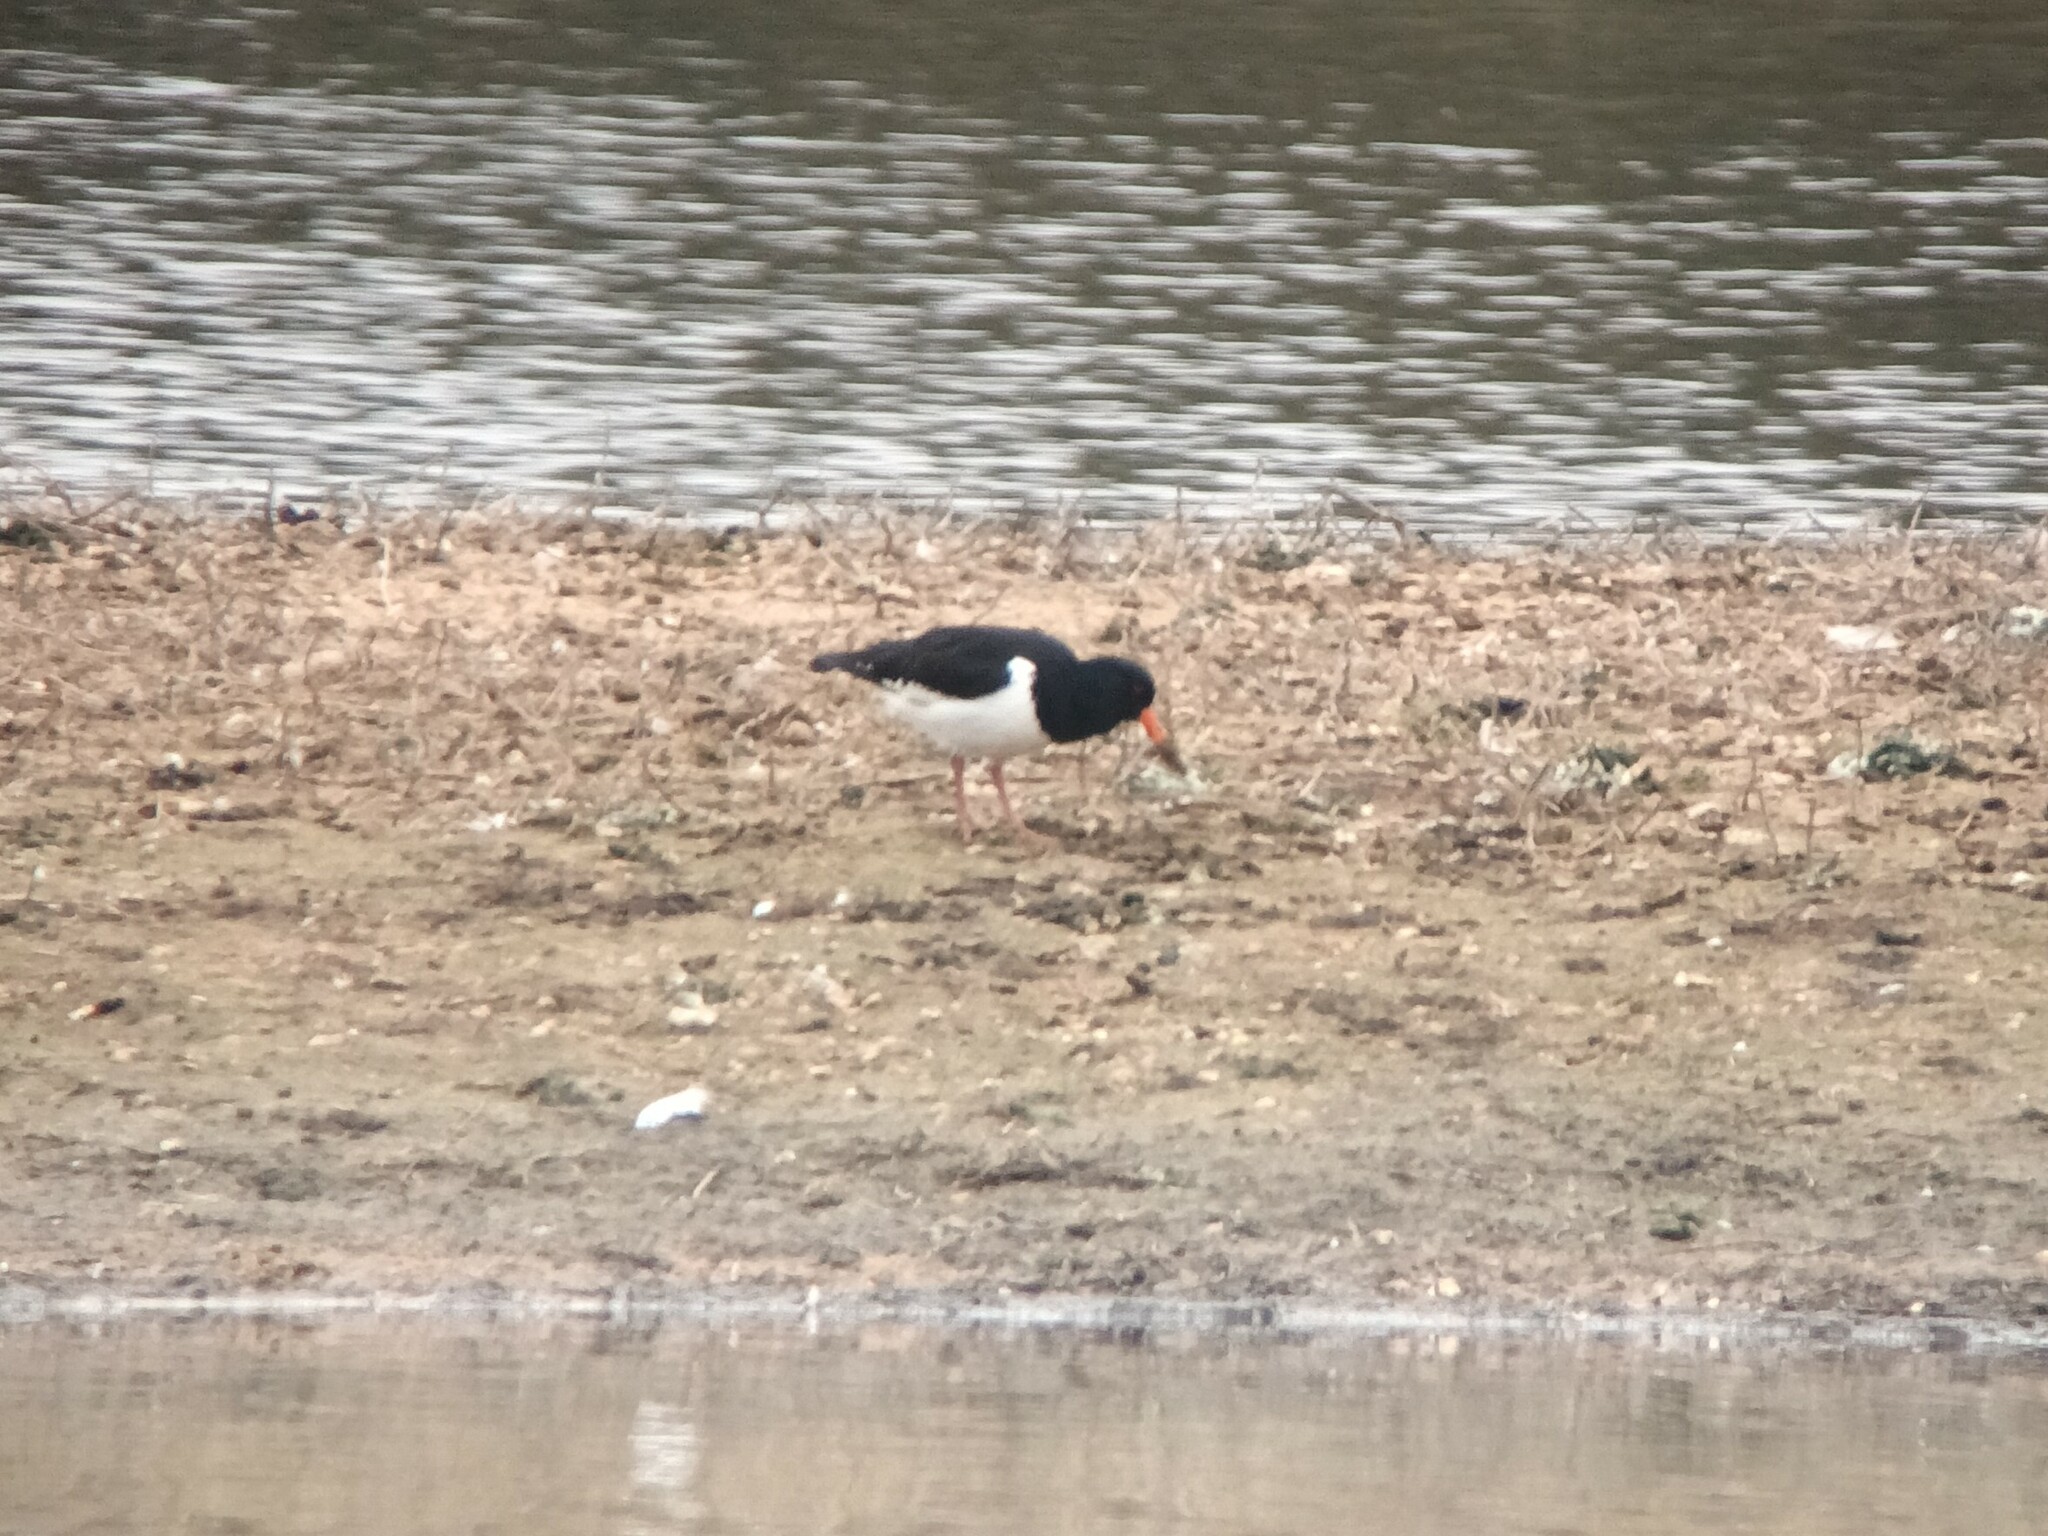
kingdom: Animalia
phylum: Chordata
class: Aves
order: Charadriiformes
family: Haematopodidae
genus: Haematopus
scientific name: Haematopus ostralegus
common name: Eurasian oystercatcher
